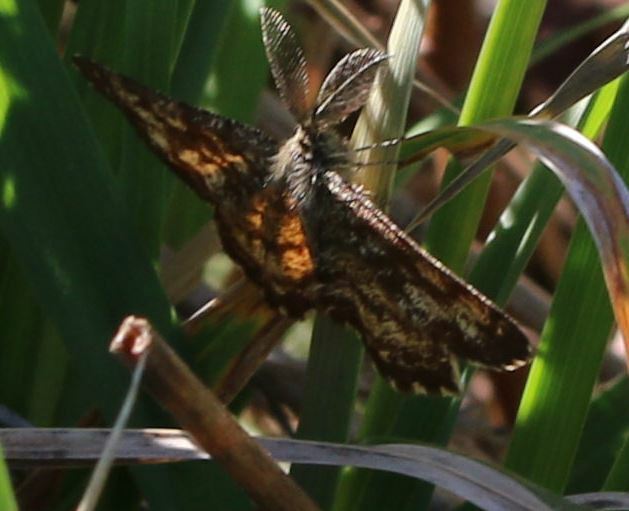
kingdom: Animalia
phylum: Arthropoda
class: Insecta
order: Lepidoptera
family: Geometridae
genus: Ematurga
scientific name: Ematurga atomaria
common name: Common heath
